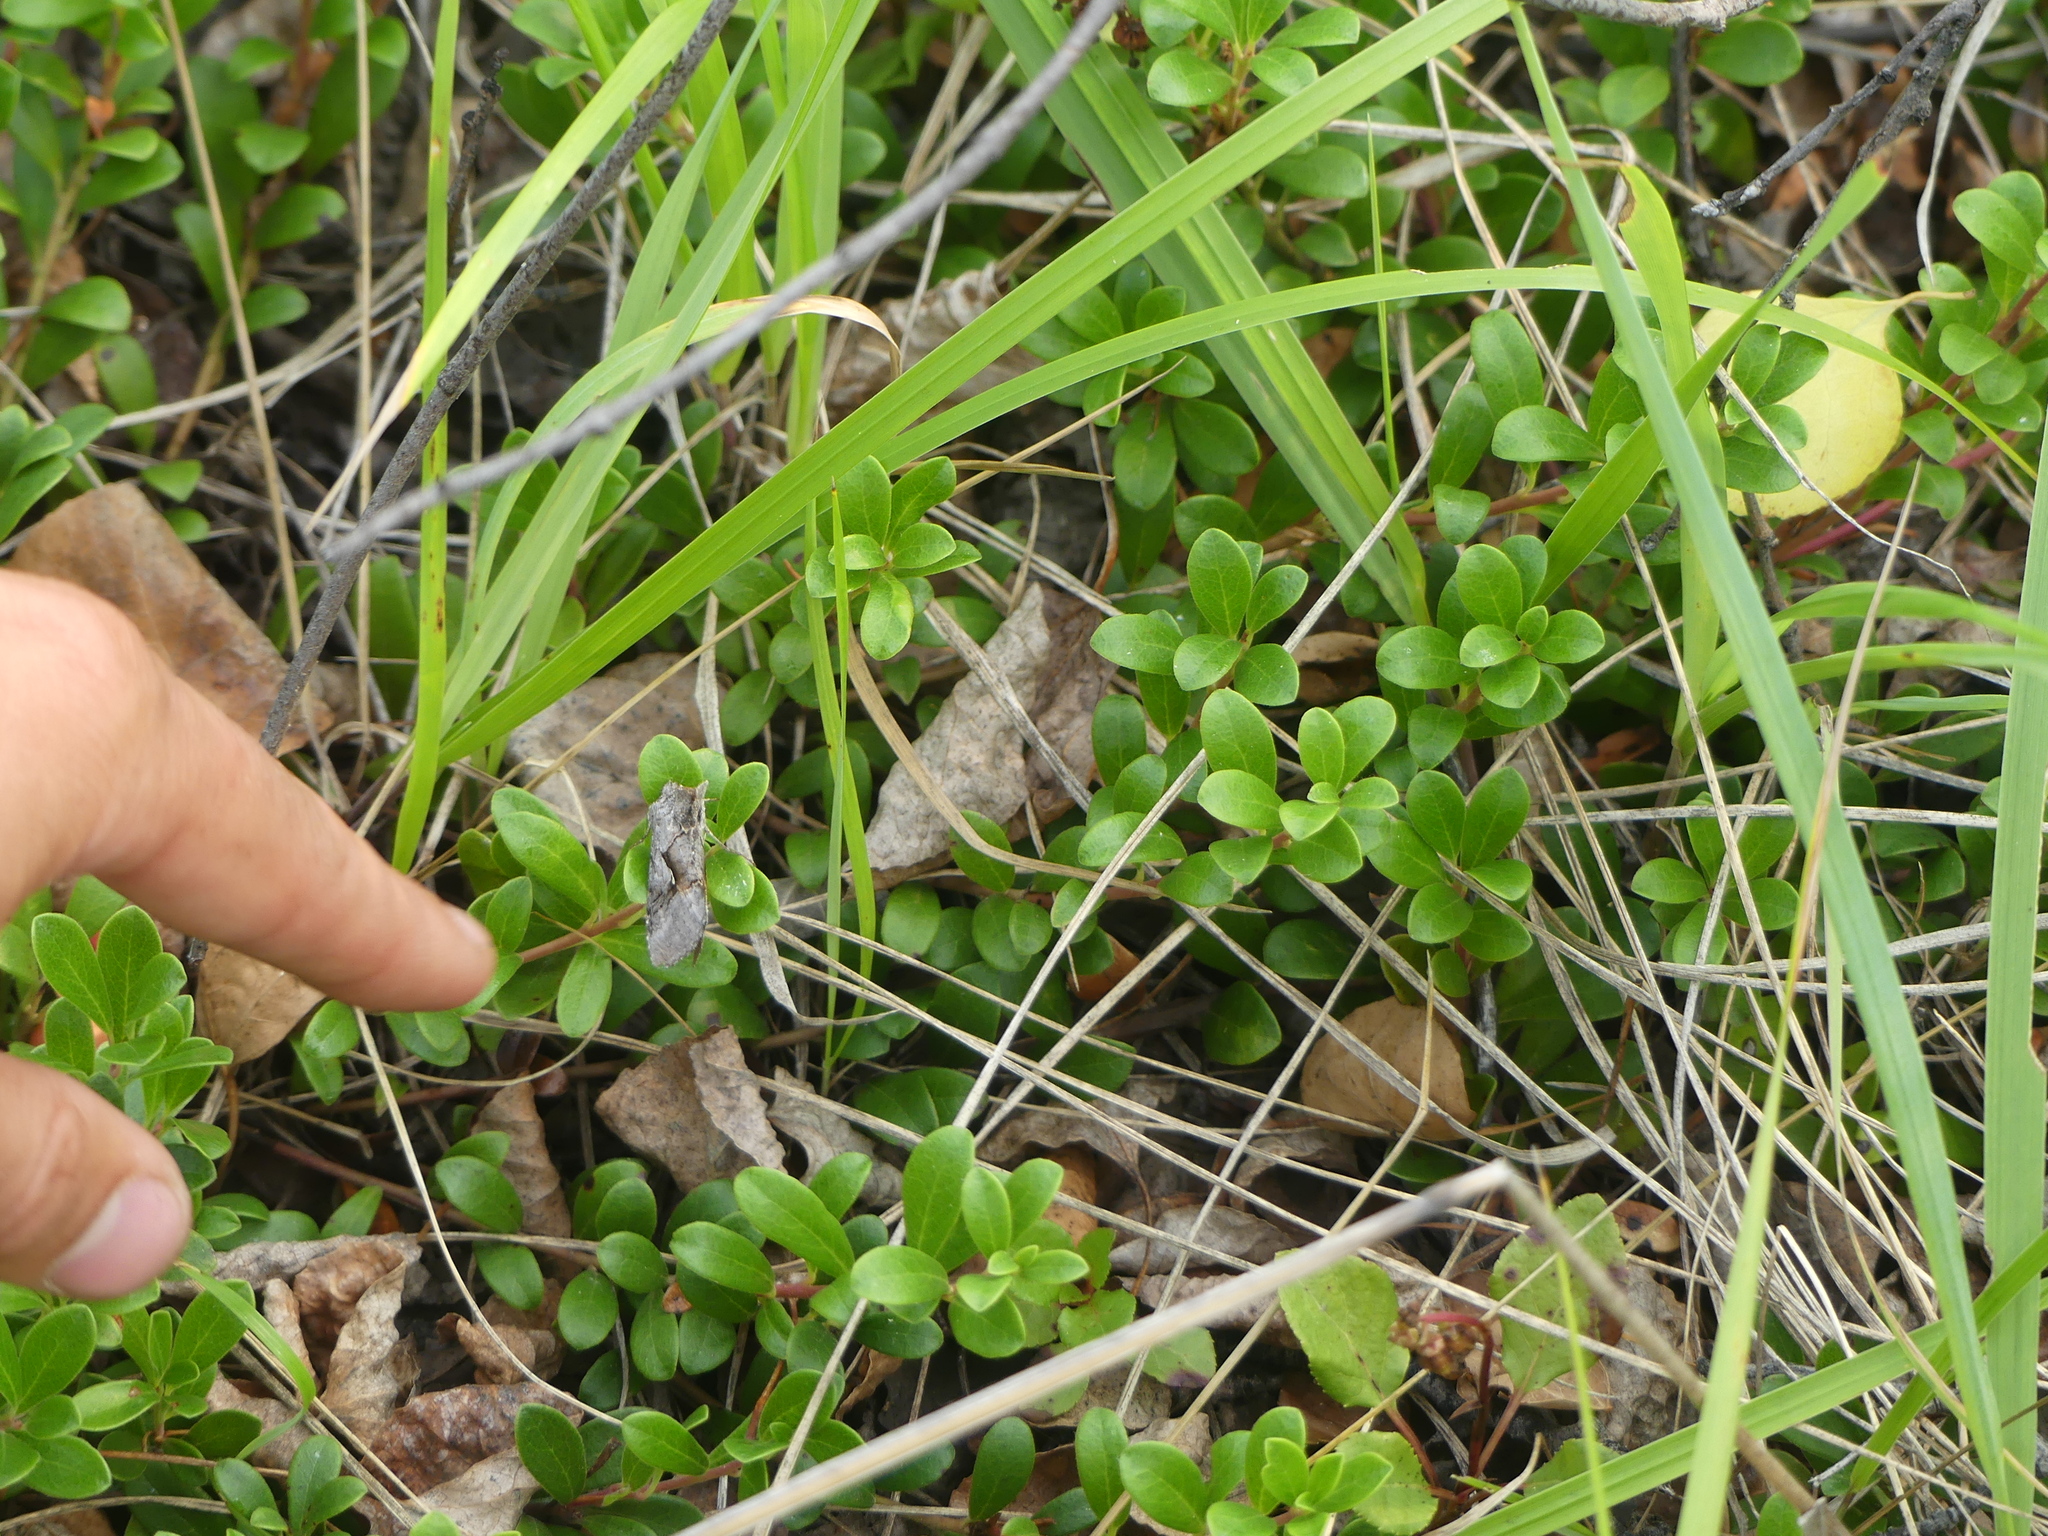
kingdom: Plantae
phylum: Tracheophyta
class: Magnoliopsida
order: Ericales
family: Ericaceae
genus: Arctostaphylos
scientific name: Arctostaphylos uva-ursi
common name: Bearberry
